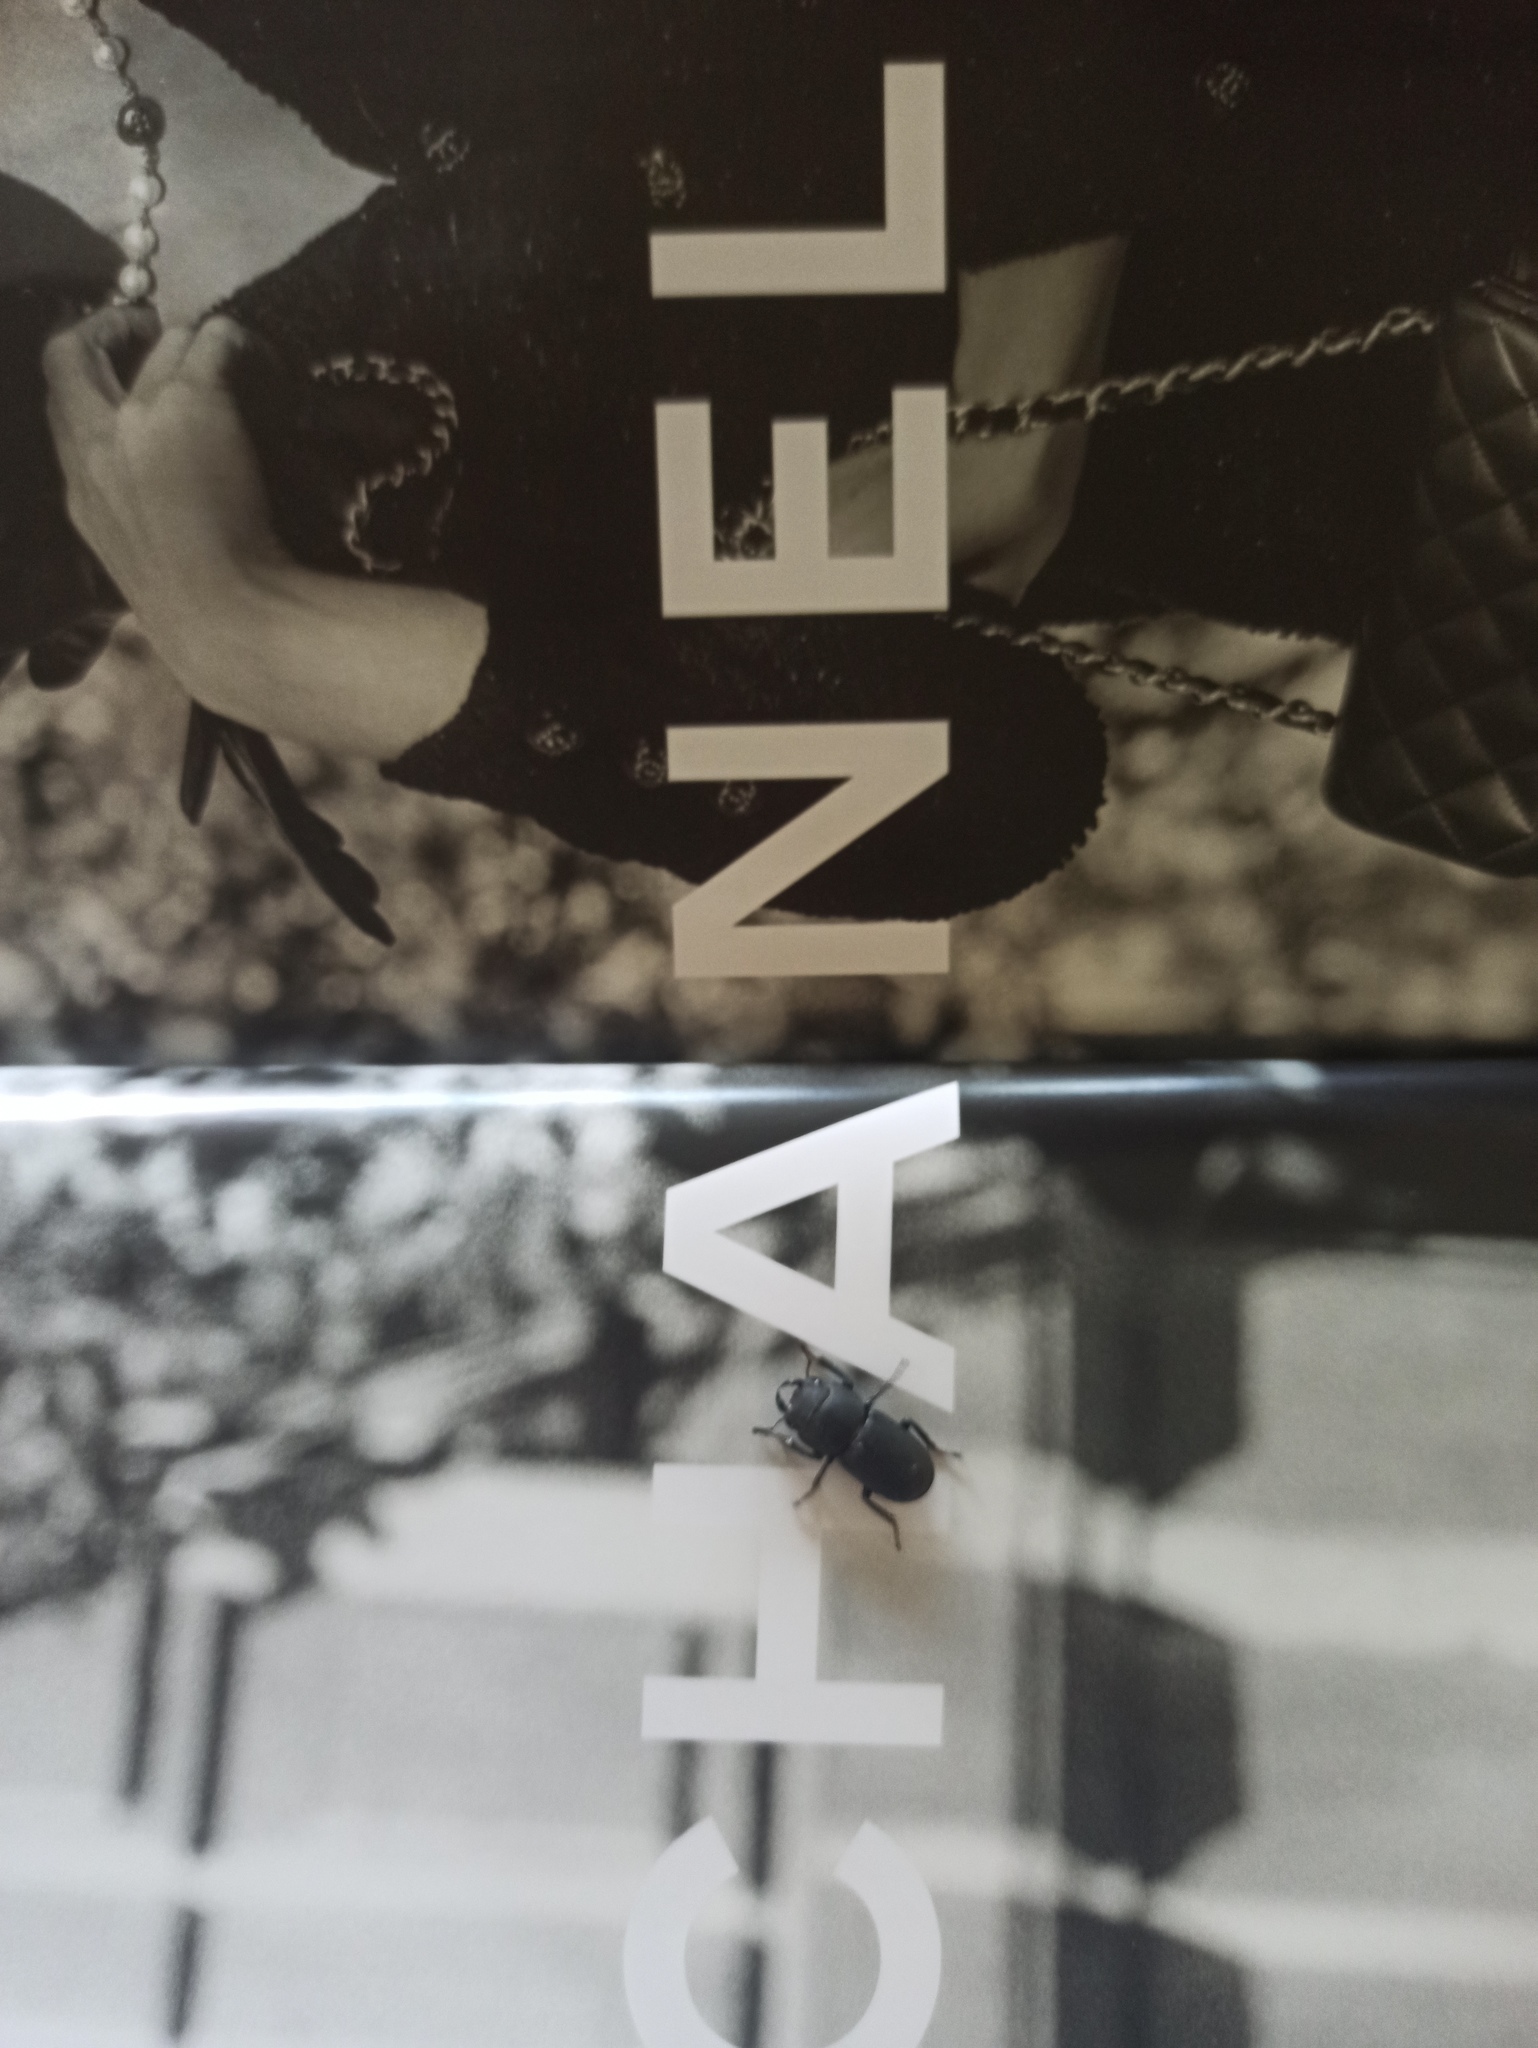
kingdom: Animalia
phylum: Arthropoda
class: Insecta
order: Coleoptera
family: Lucanidae
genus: Dorcus
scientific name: Dorcus parallelipipedus
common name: Lesser stag beetle
